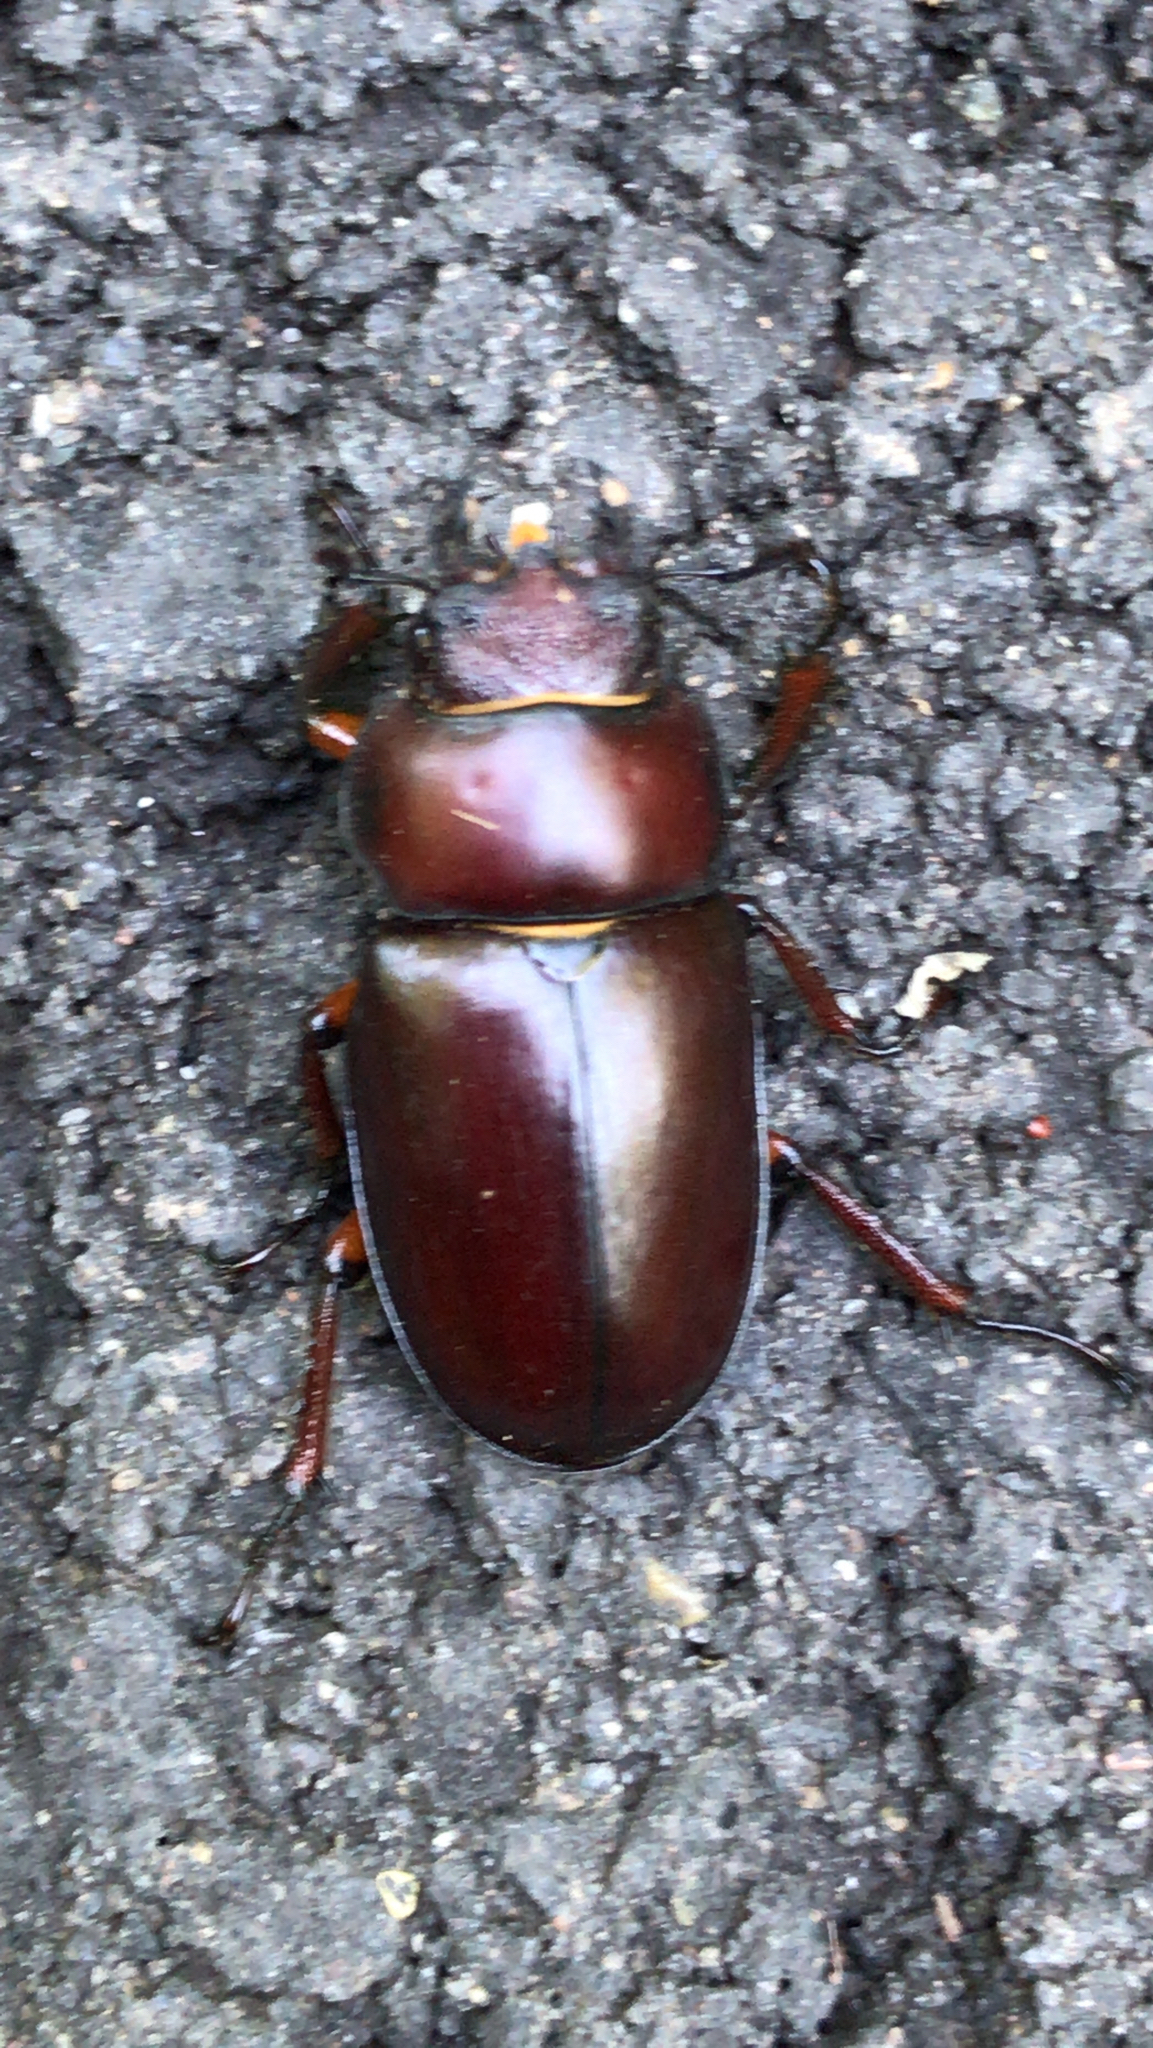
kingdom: Animalia
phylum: Arthropoda
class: Insecta
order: Coleoptera
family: Lucanidae
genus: Lucanus
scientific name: Lucanus capreolus
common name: Stag beetle
